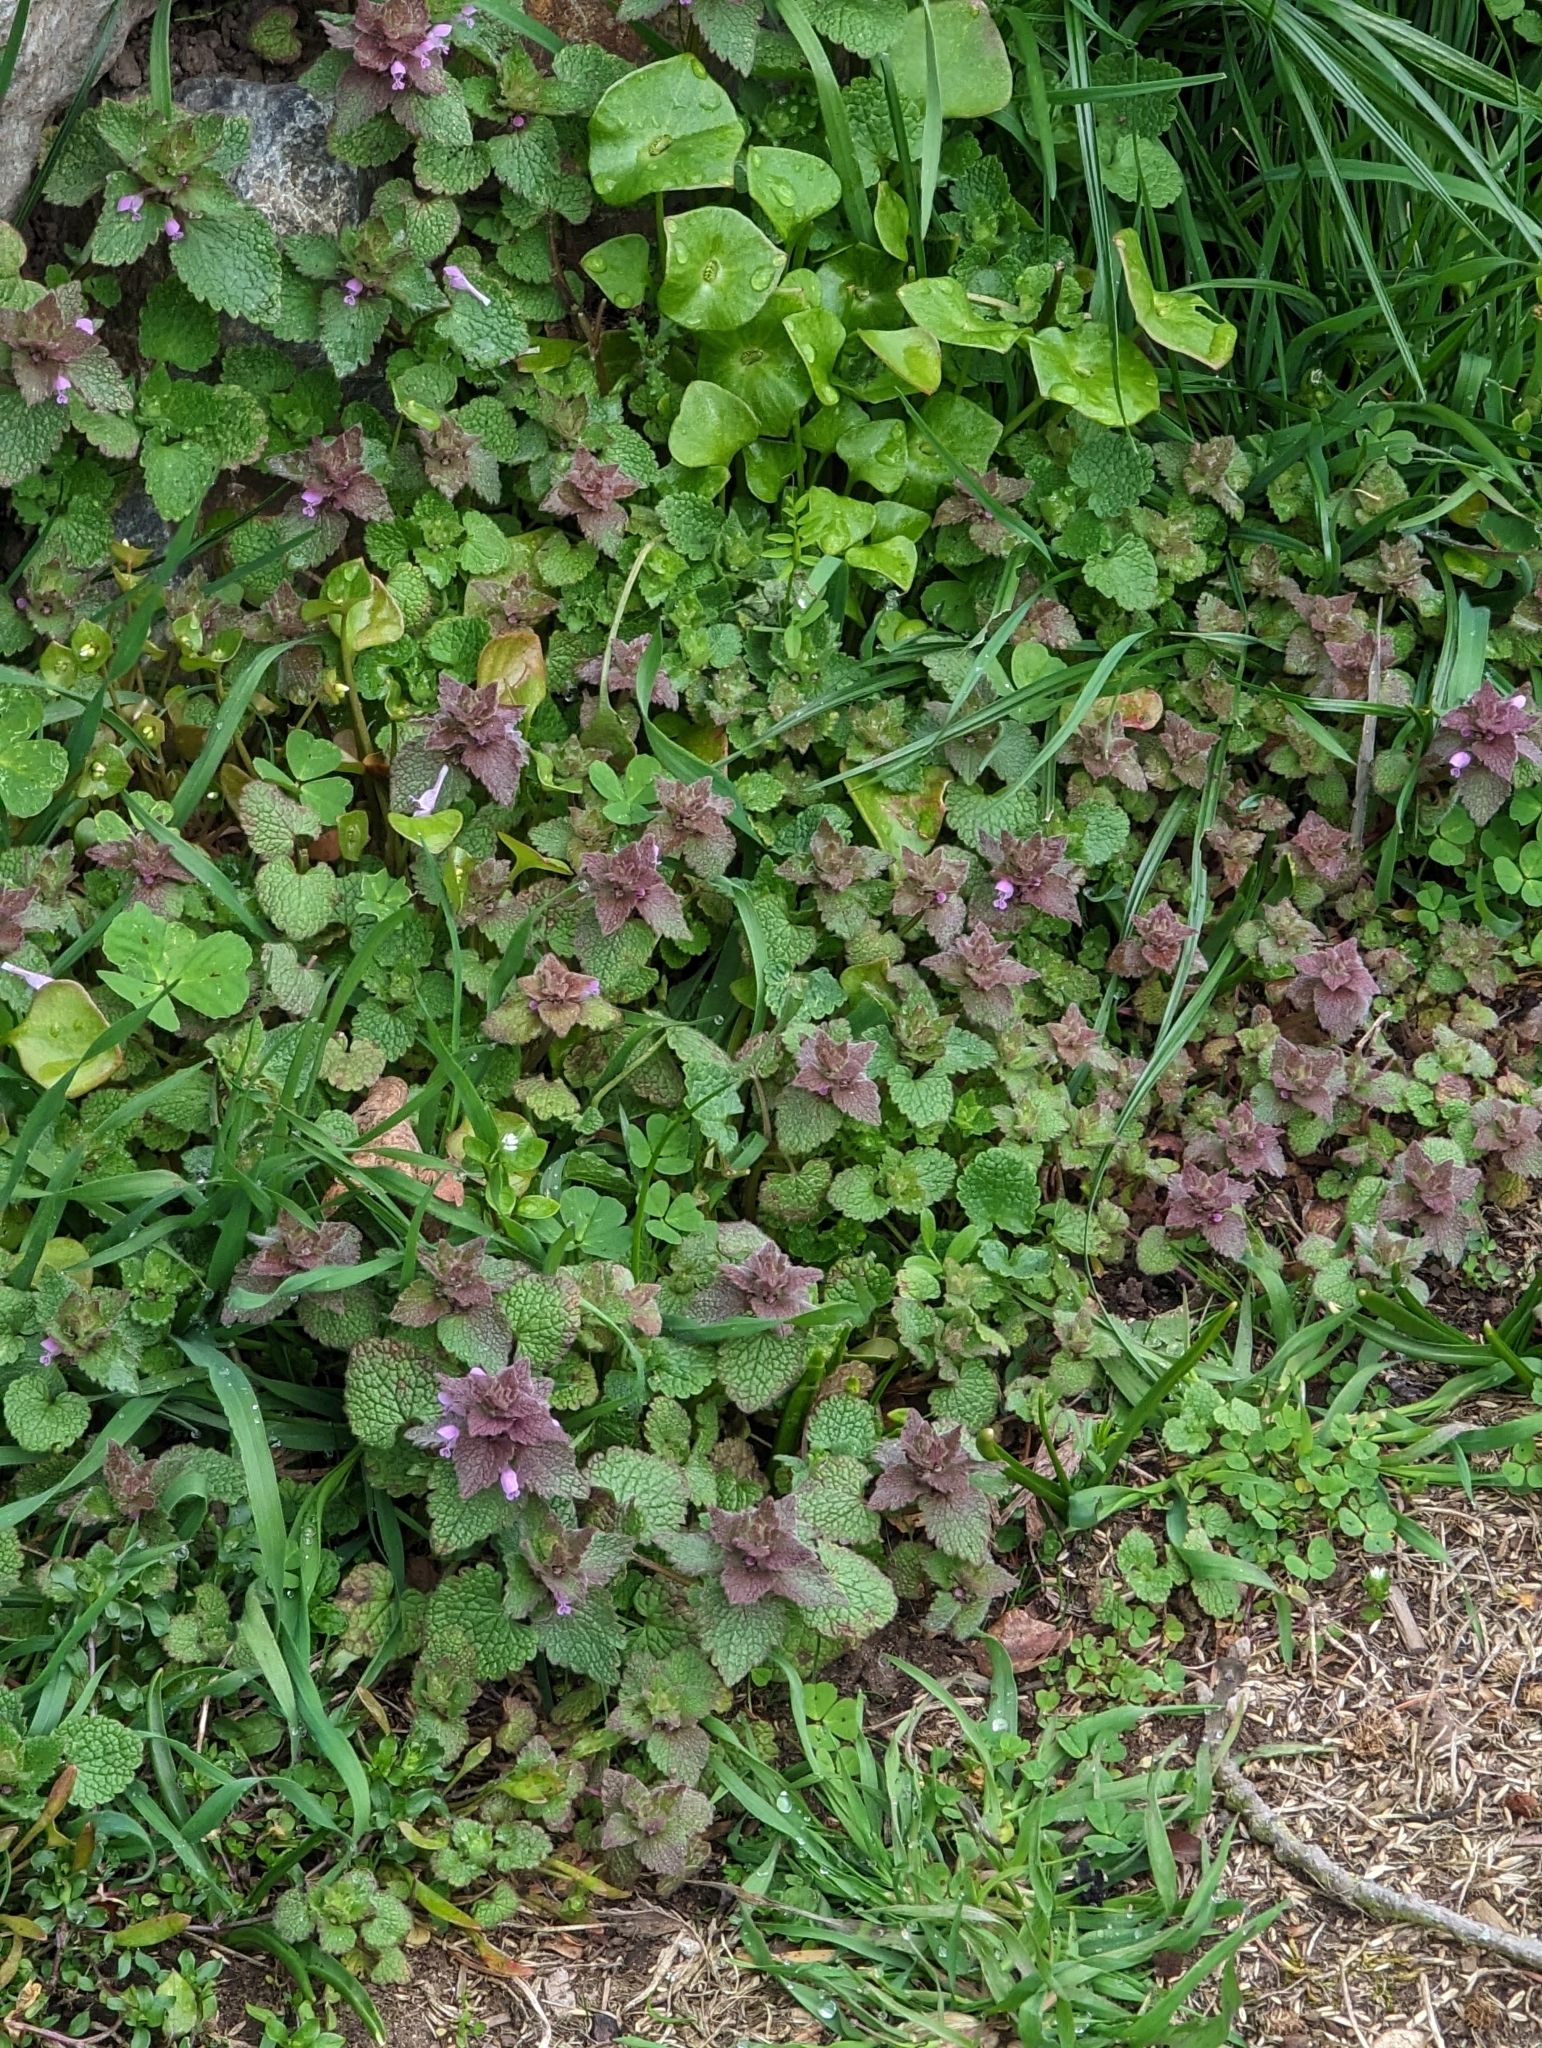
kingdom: Plantae
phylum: Tracheophyta
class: Magnoliopsida
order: Lamiales
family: Lamiaceae
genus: Lamium
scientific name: Lamium purpureum
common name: Red dead-nettle
